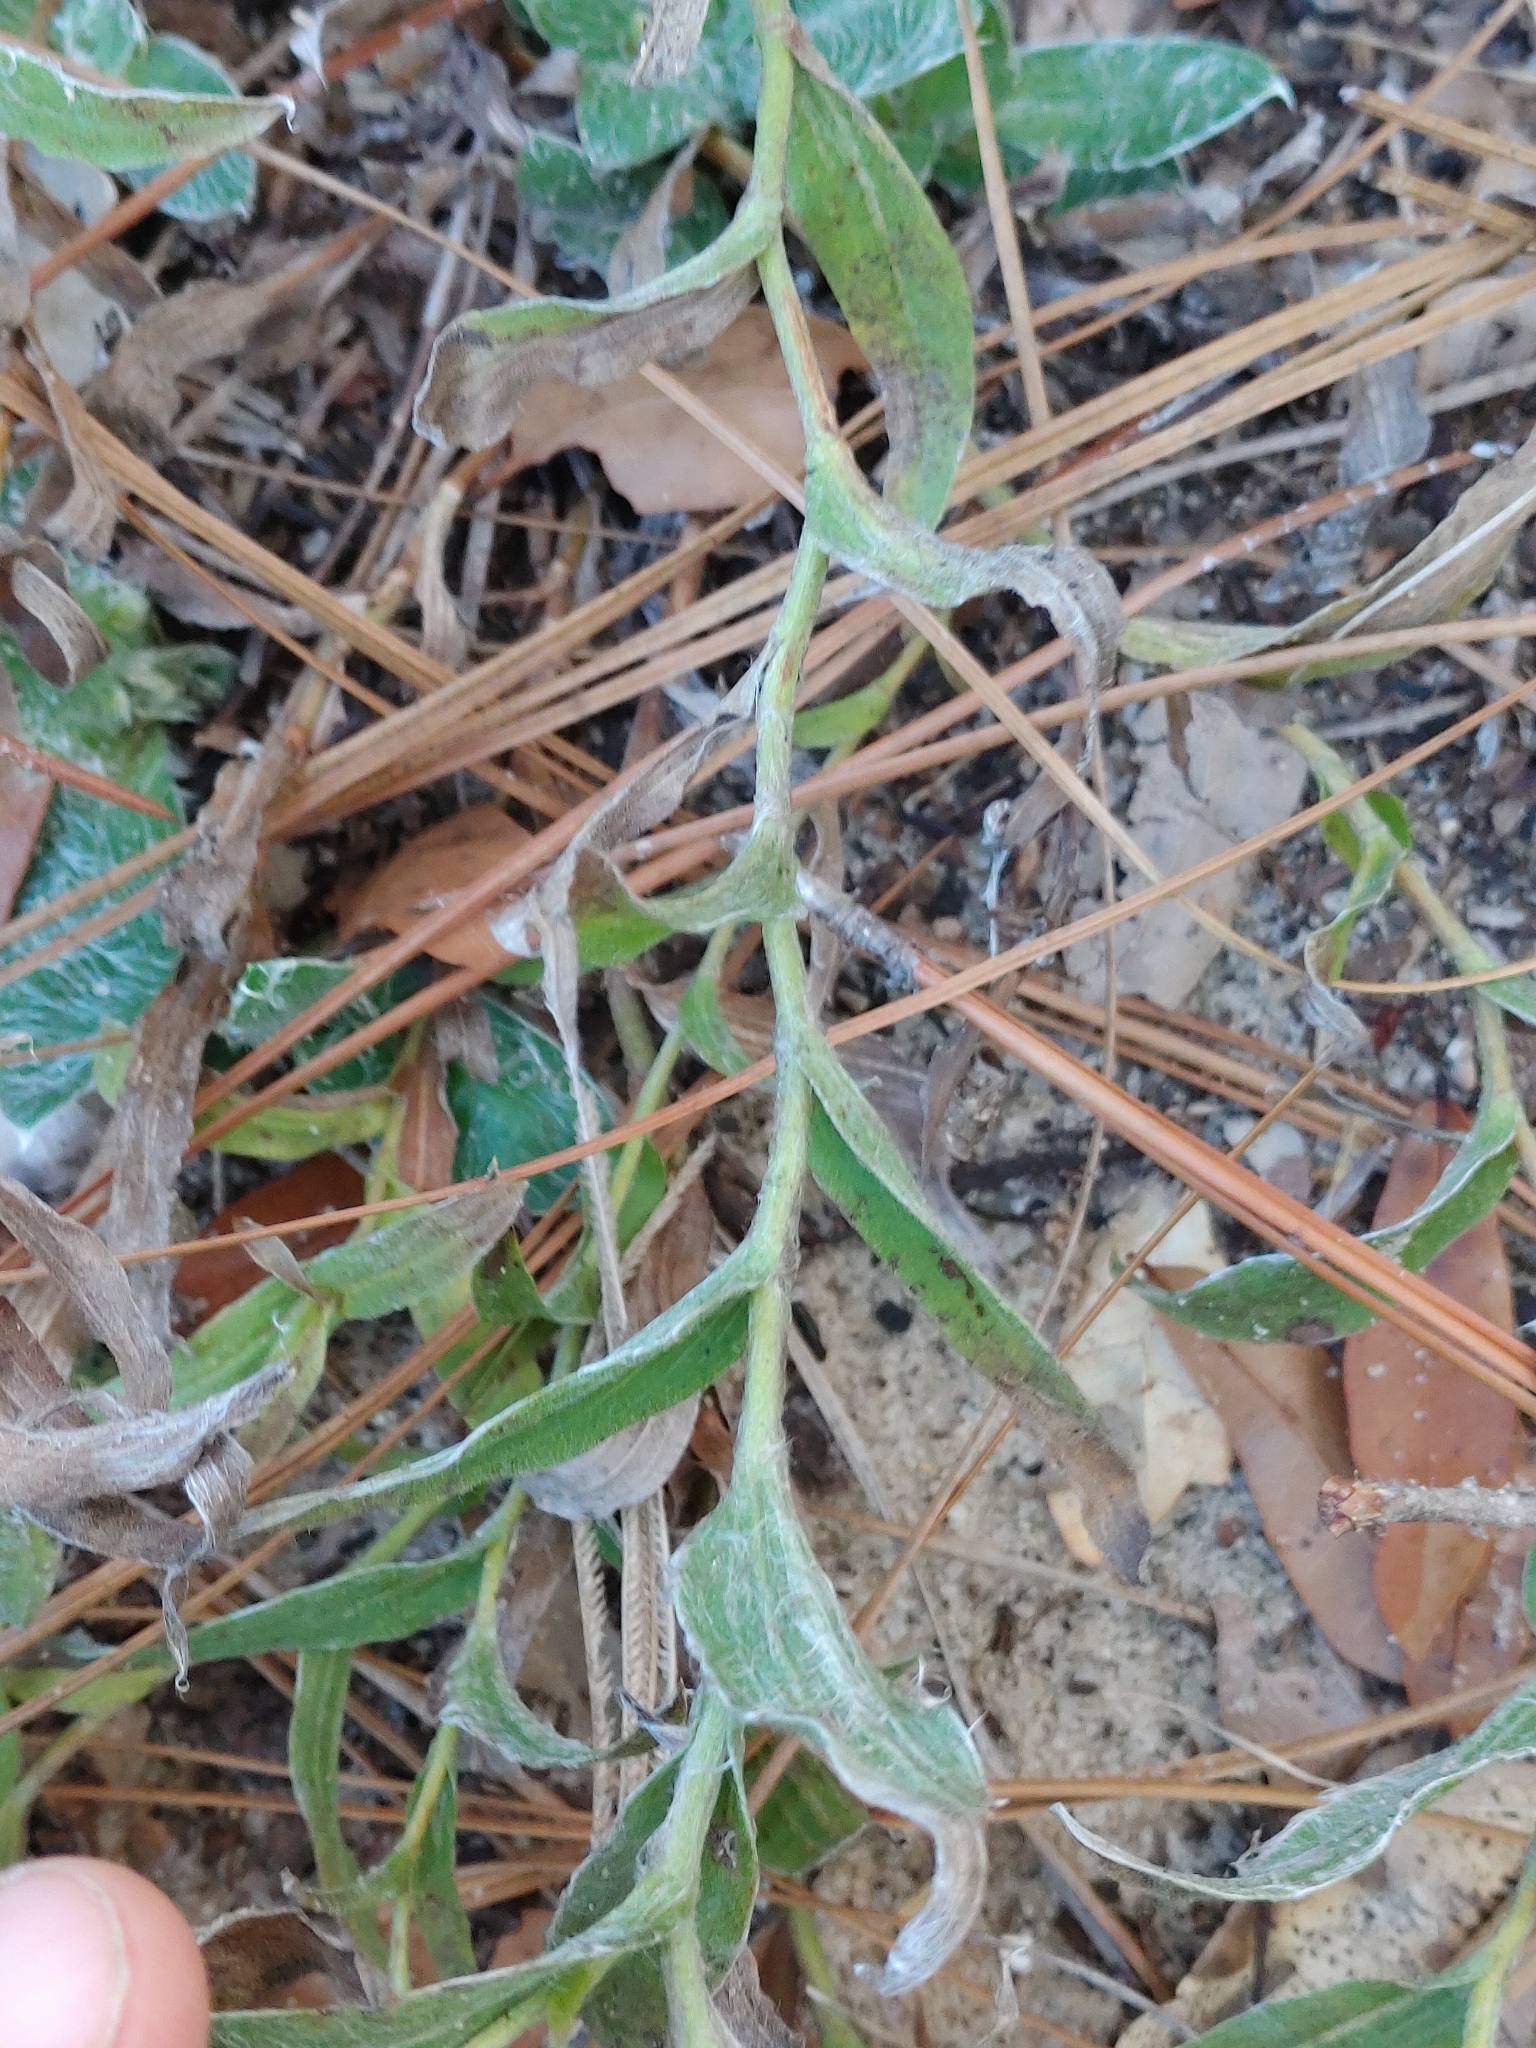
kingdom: Plantae
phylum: Tracheophyta
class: Magnoliopsida
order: Asterales
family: Asteraceae
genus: Pityopsis
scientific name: Pityopsis flexuosa
